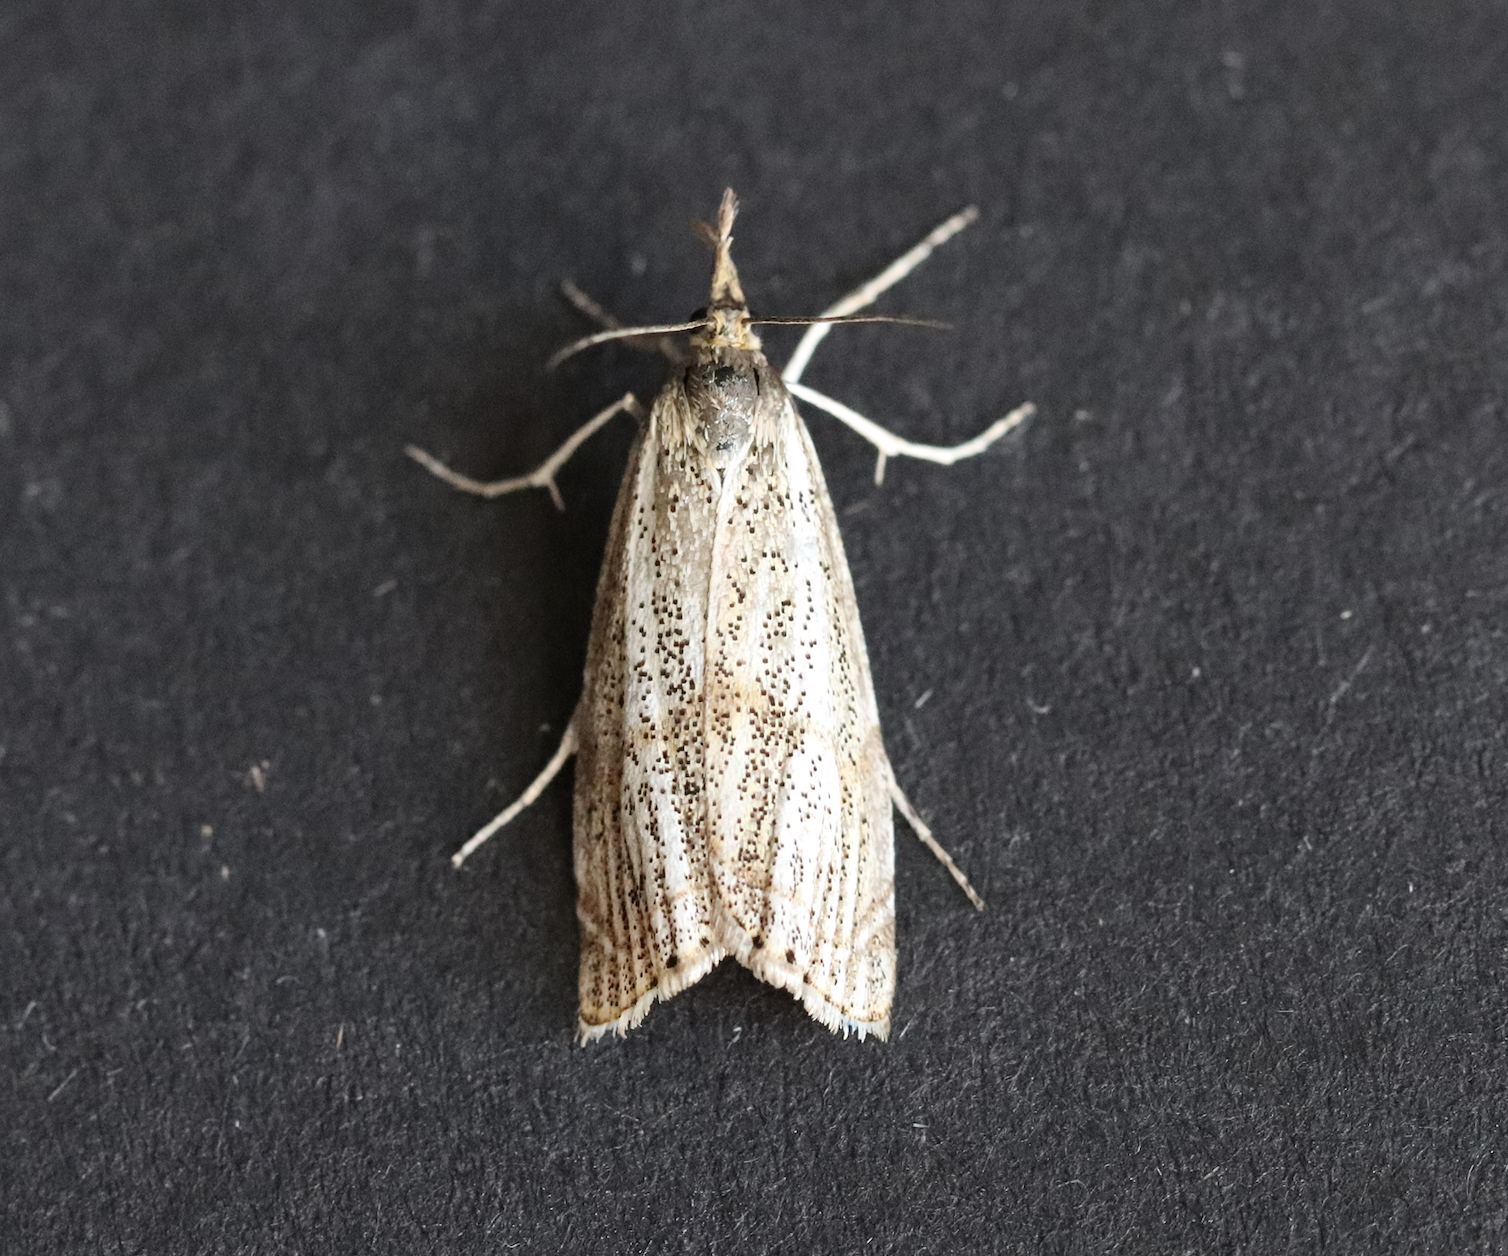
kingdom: Animalia
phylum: Arthropoda
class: Insecta
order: Lepidoptera
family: Crambidae
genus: Thisanotia
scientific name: Thisanotia chrysonuchella
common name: Powdered grass-veneer
